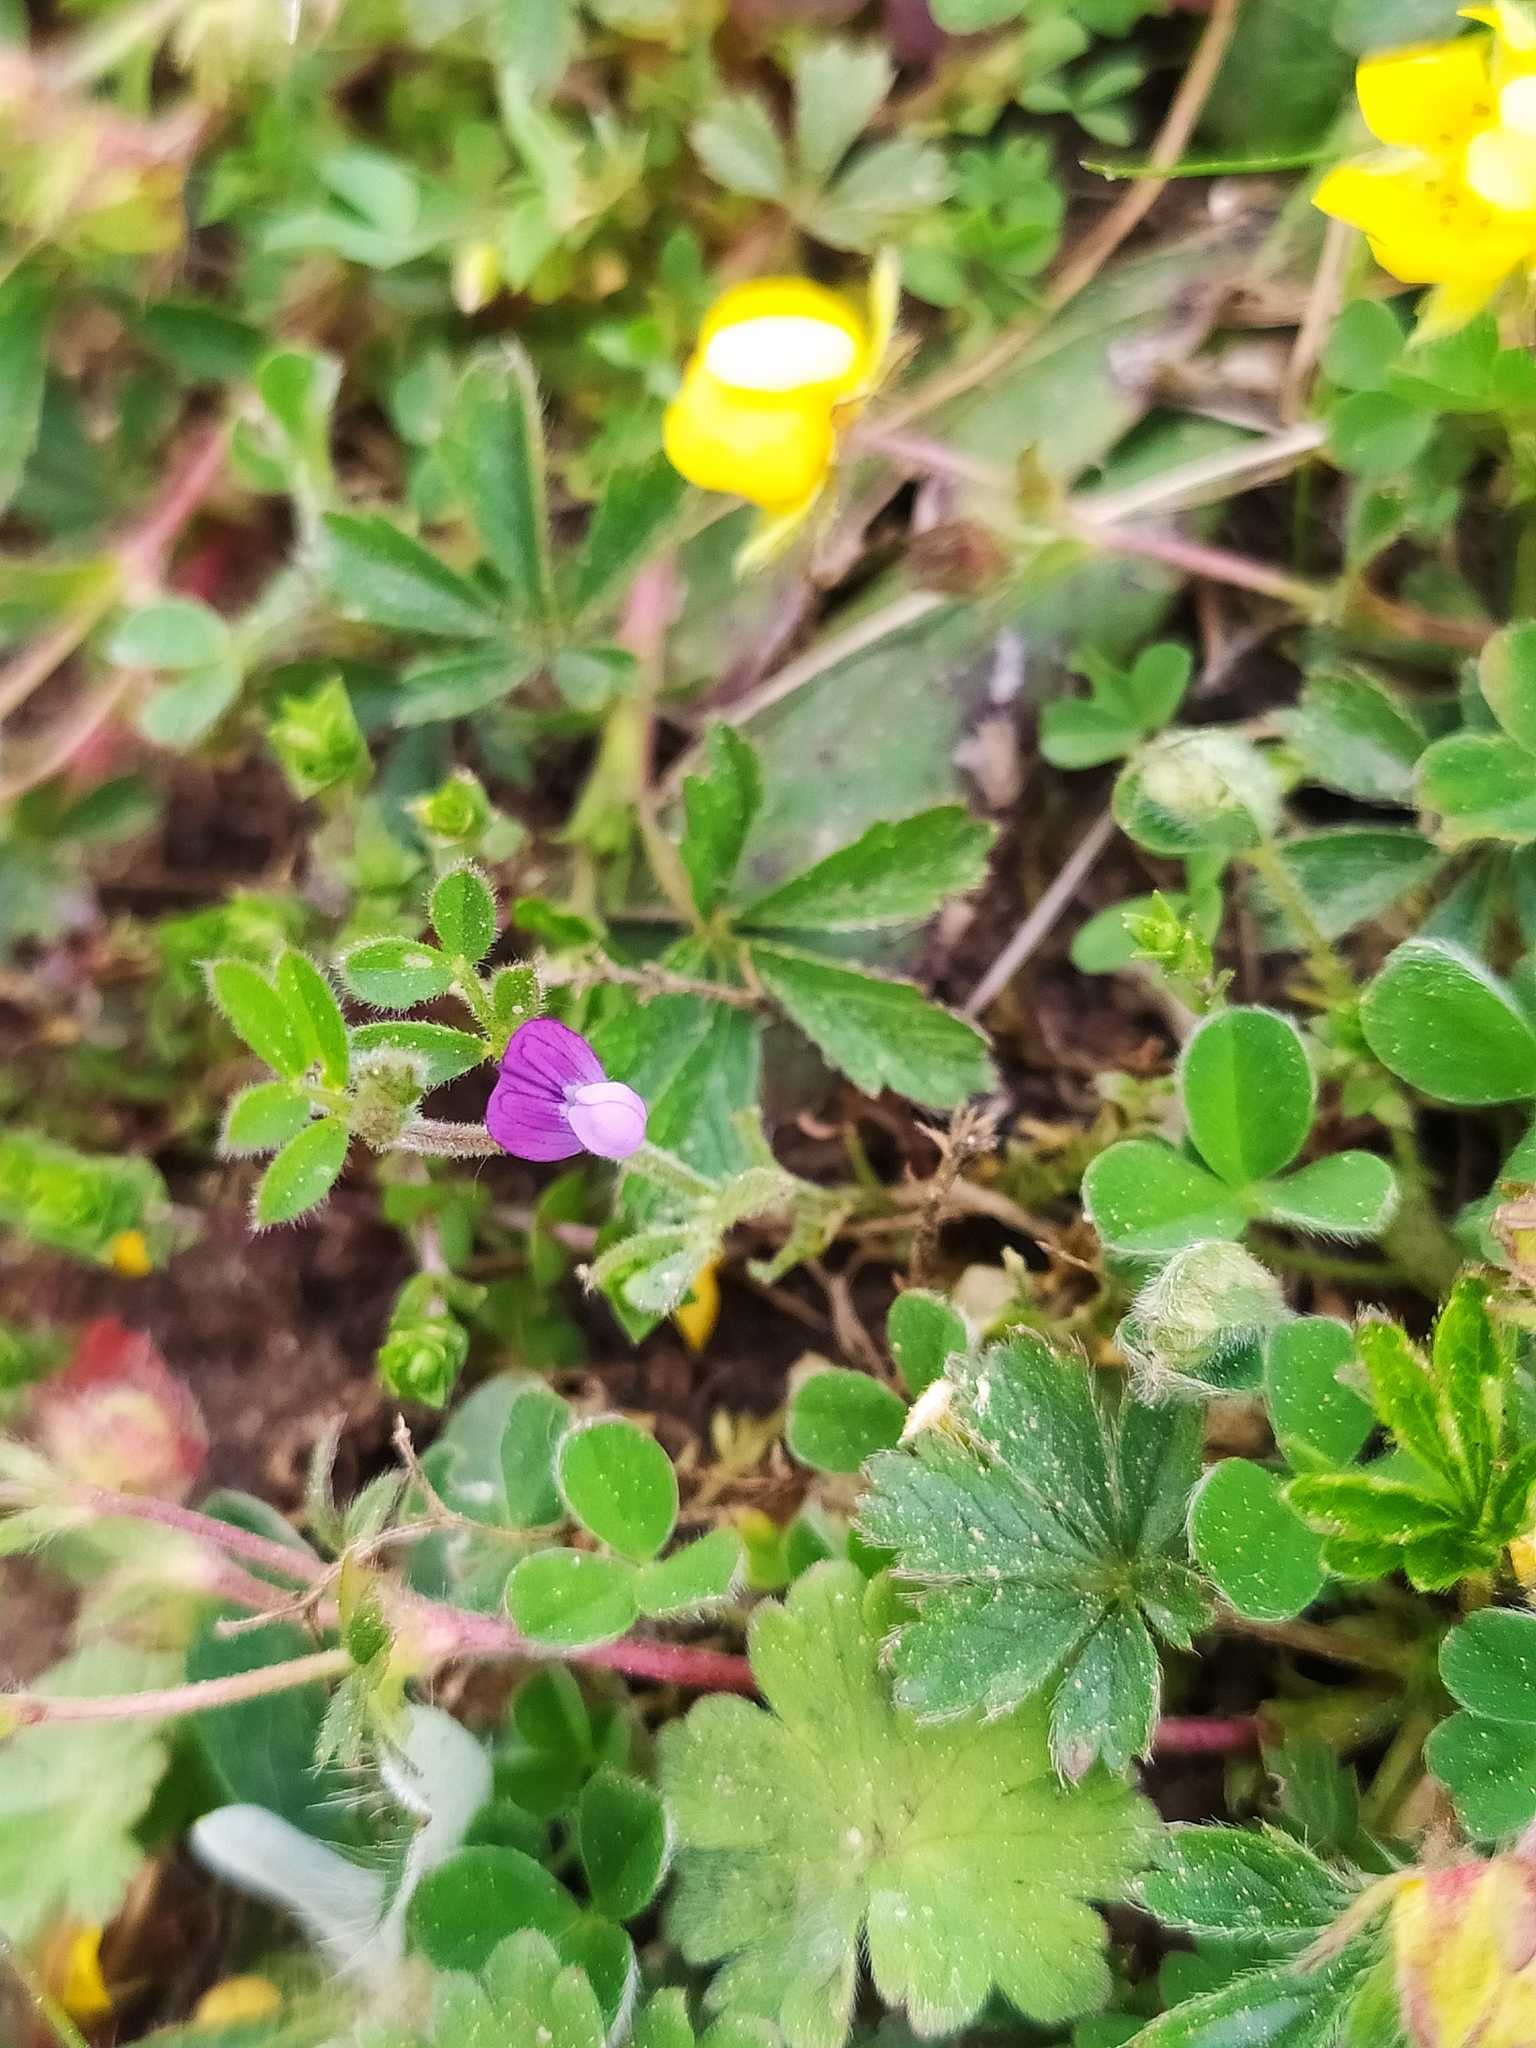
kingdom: Plantae
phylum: Tracheophyta
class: Magnoliopsida
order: Fabales
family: Fabaceae
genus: Vicia
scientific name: Vicia lathyroides
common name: Spring vetch
